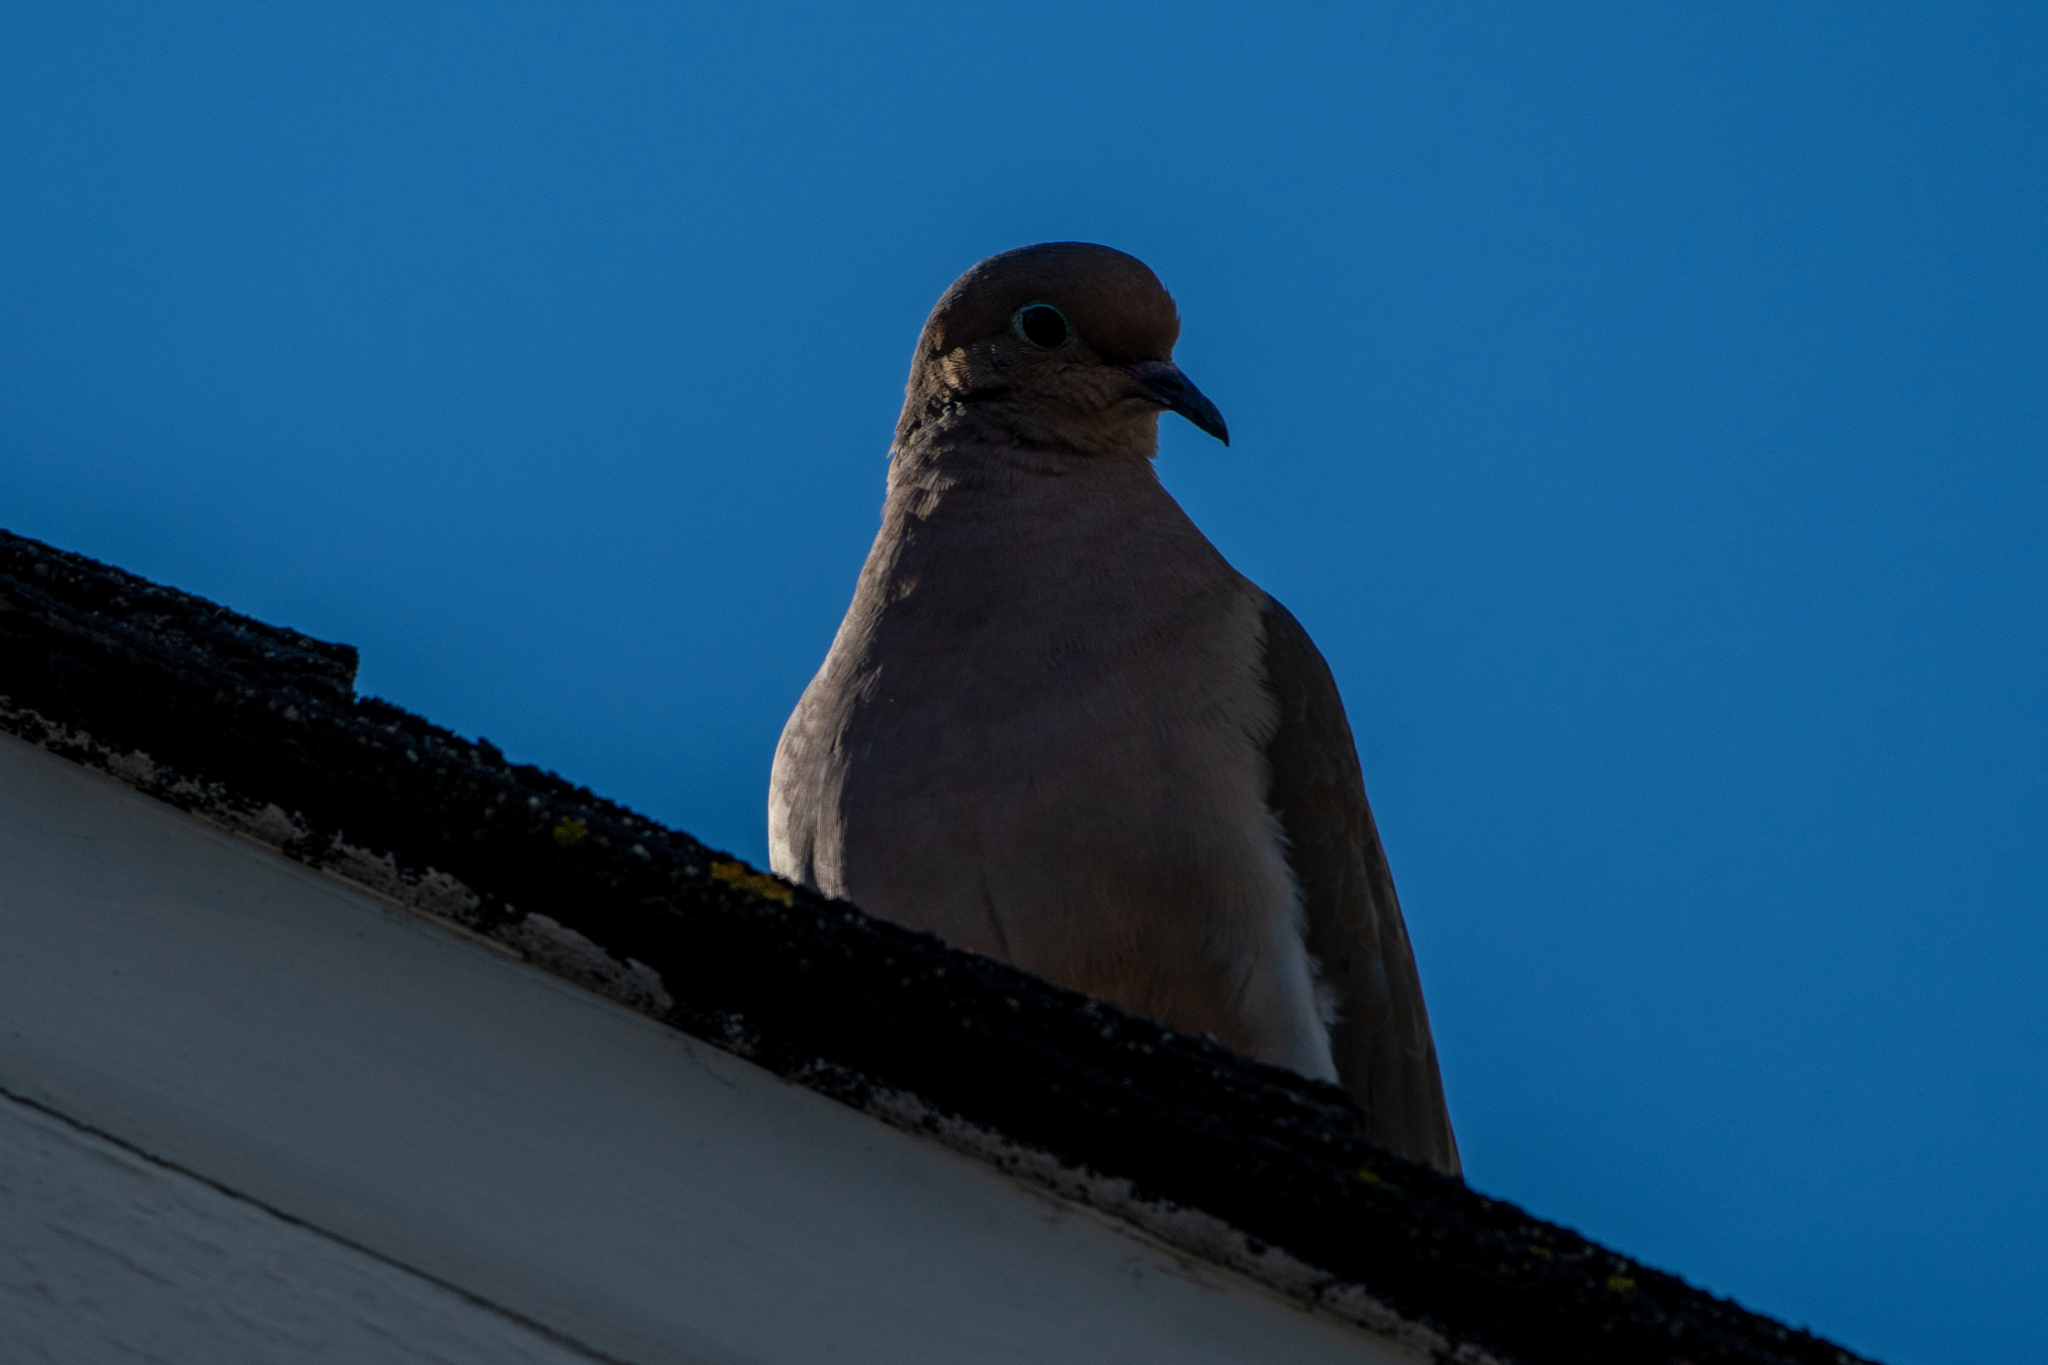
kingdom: Animalia
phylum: Chordata
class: Aves
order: Columbiformes
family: Columbidae
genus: Zenaida
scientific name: Zenaida macroura
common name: Mourning dove
